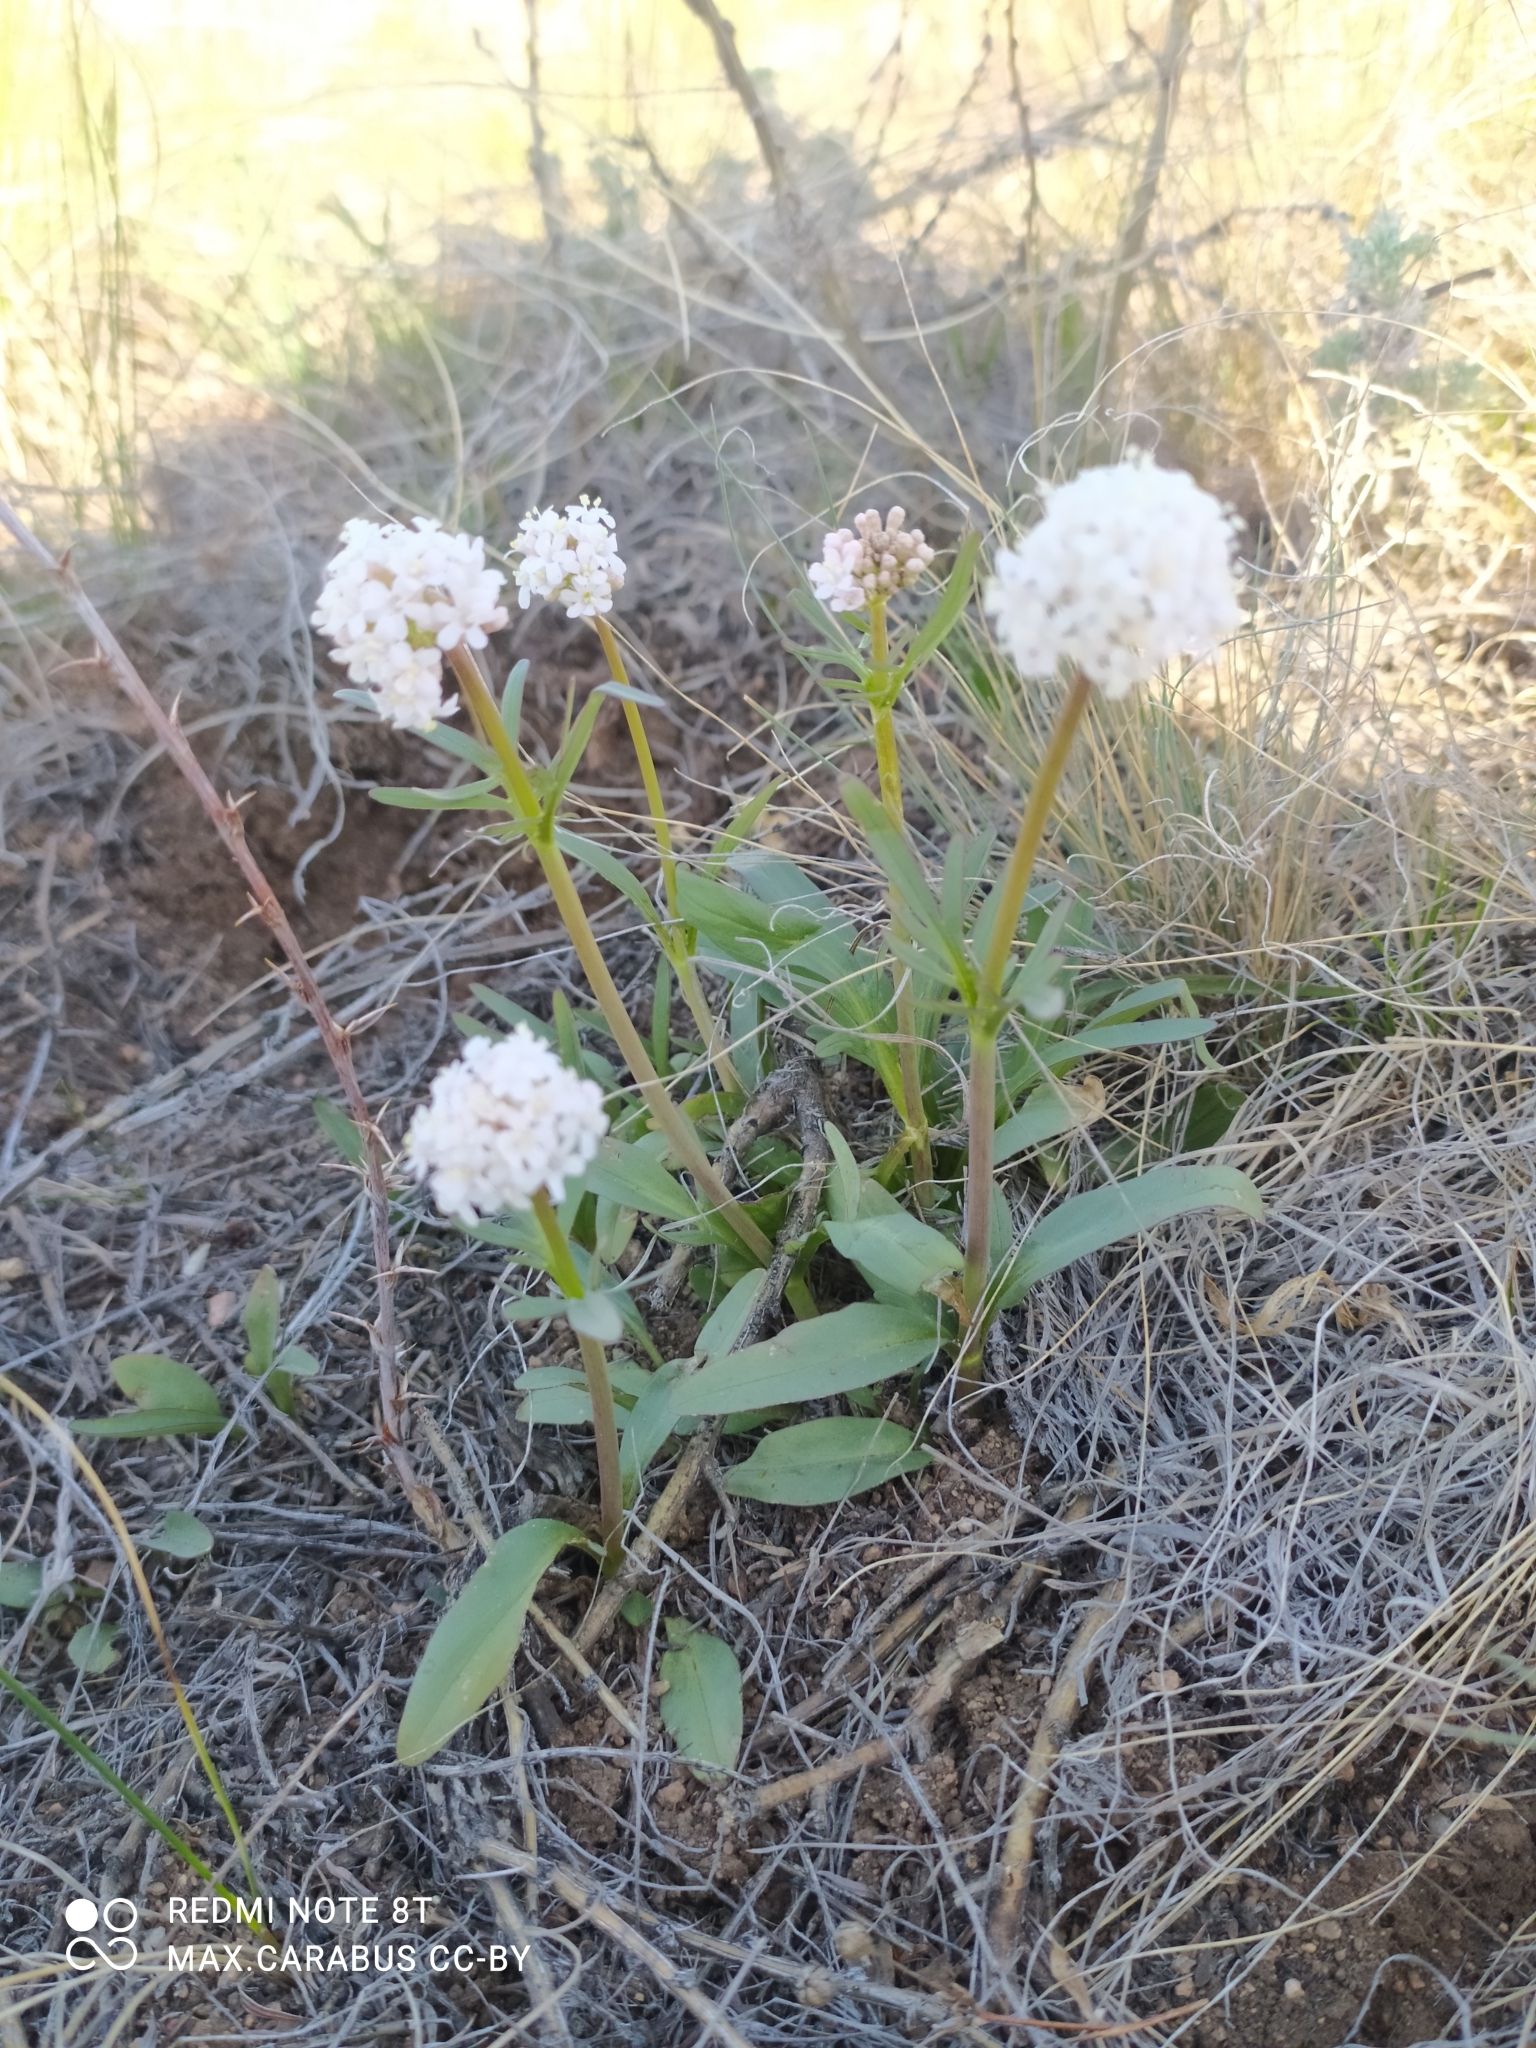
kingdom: Plantae
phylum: Tracheophyta
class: Magnoliopsida
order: Dipsacales
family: Caprifoliaceae
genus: Valeriana
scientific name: Valeriana tuberosa
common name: Tuberous valerian
